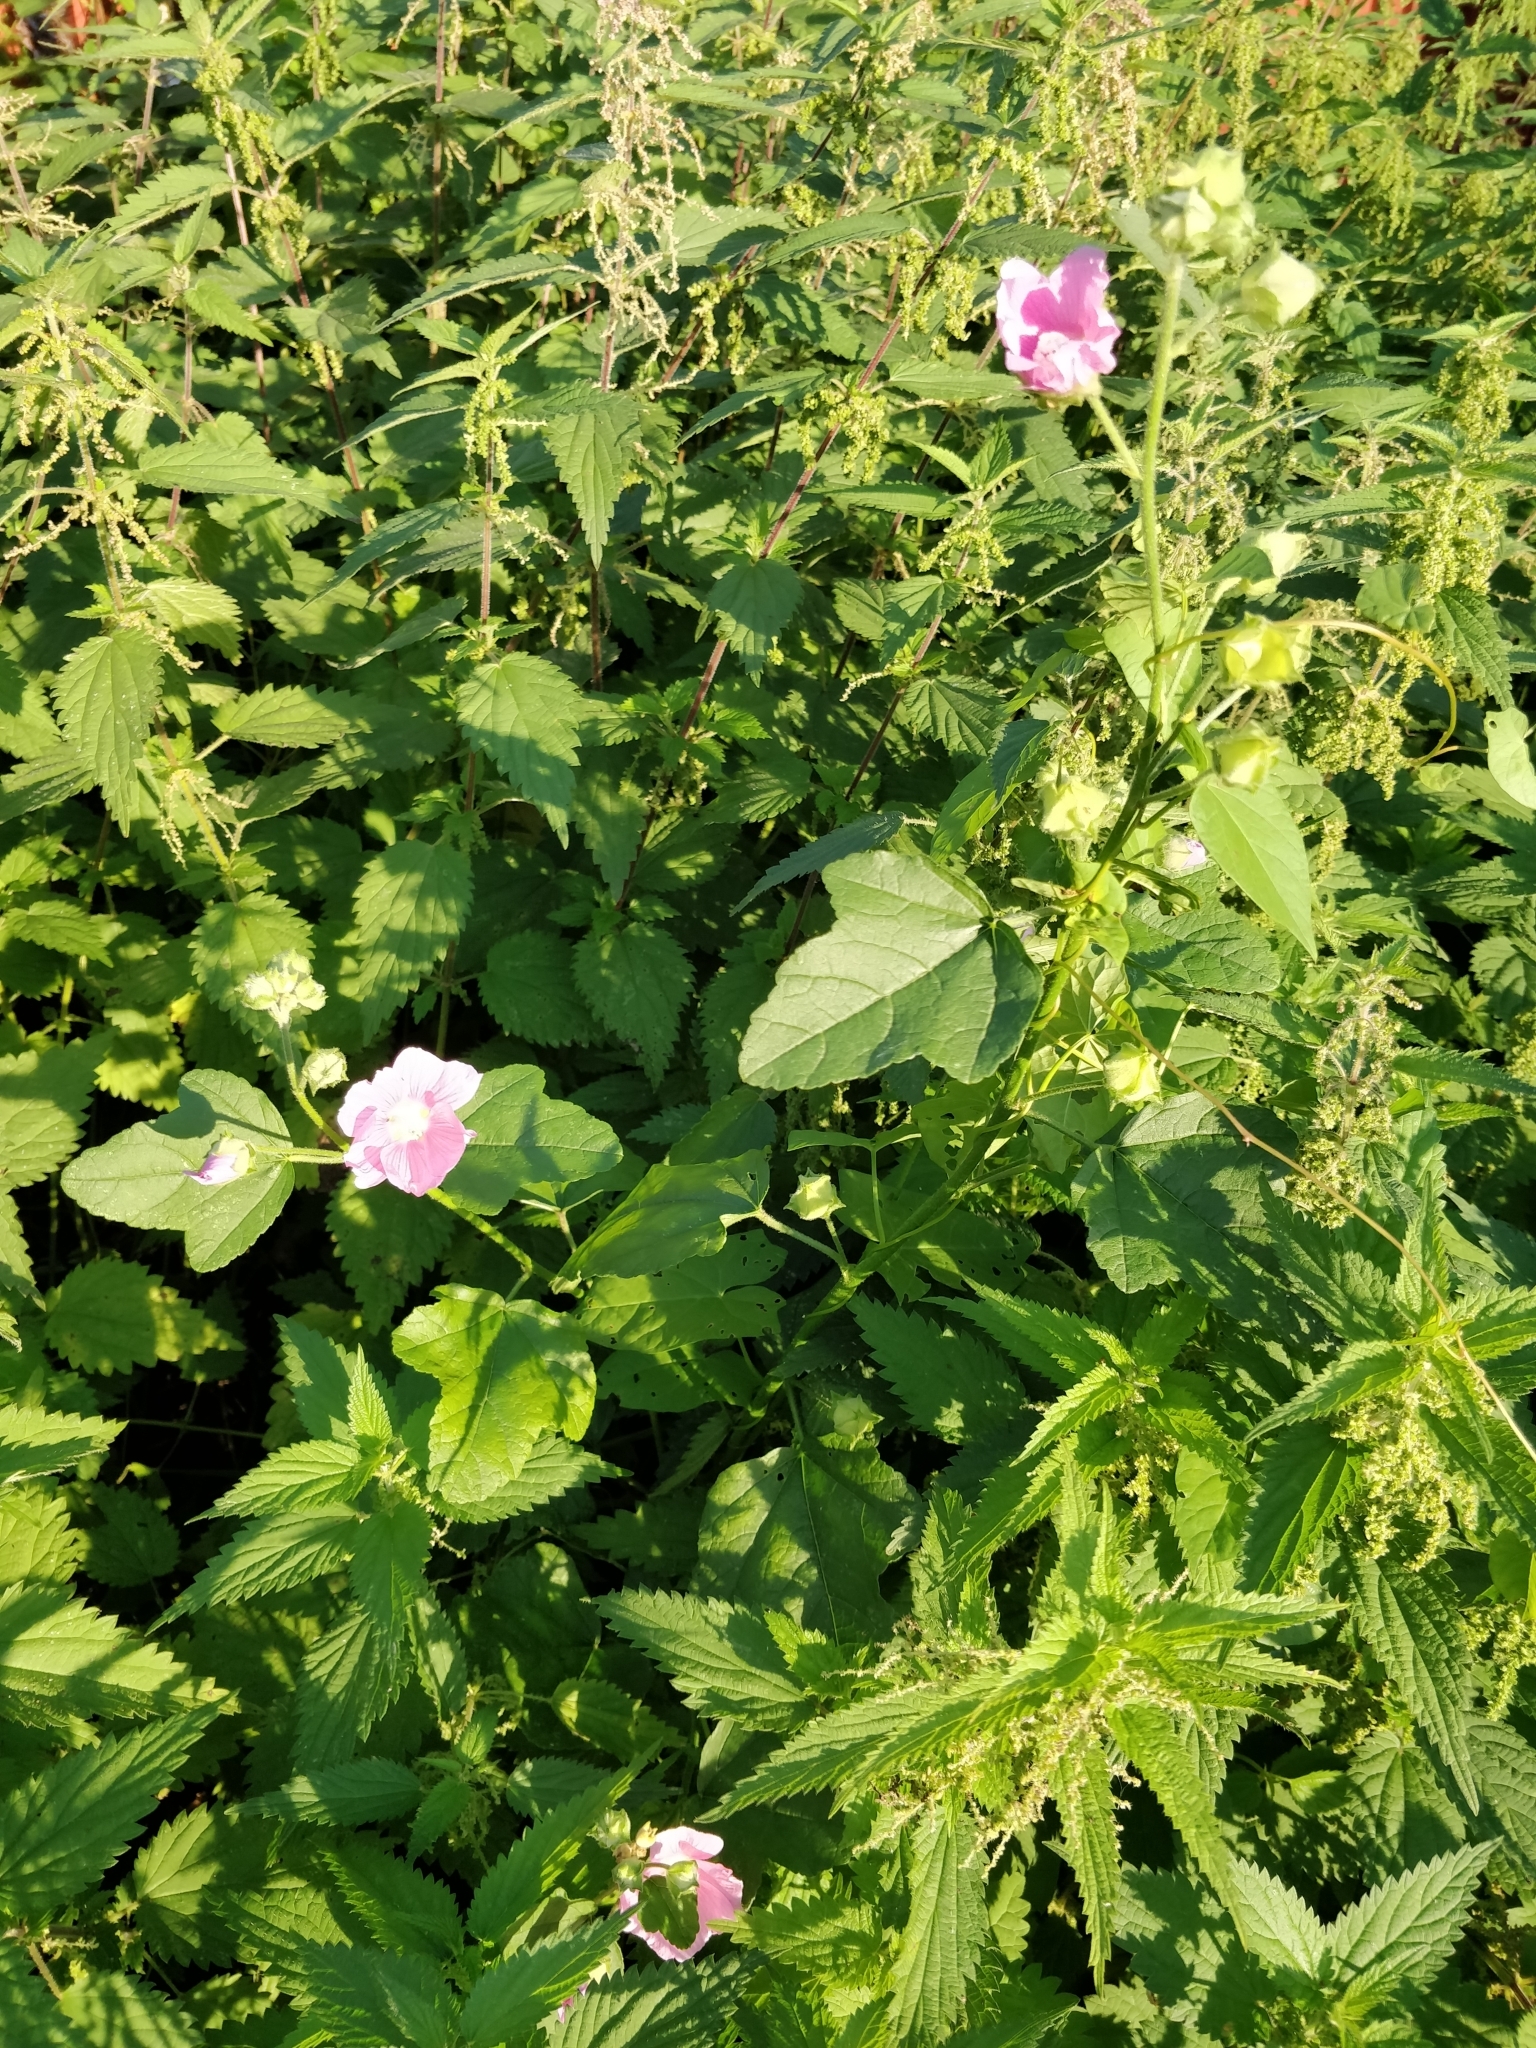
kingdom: Plantae
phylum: Tracheophyta
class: Magnoliopsida
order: Malvales
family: Malvaceae
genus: Malva
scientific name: Malva thuringiaca
